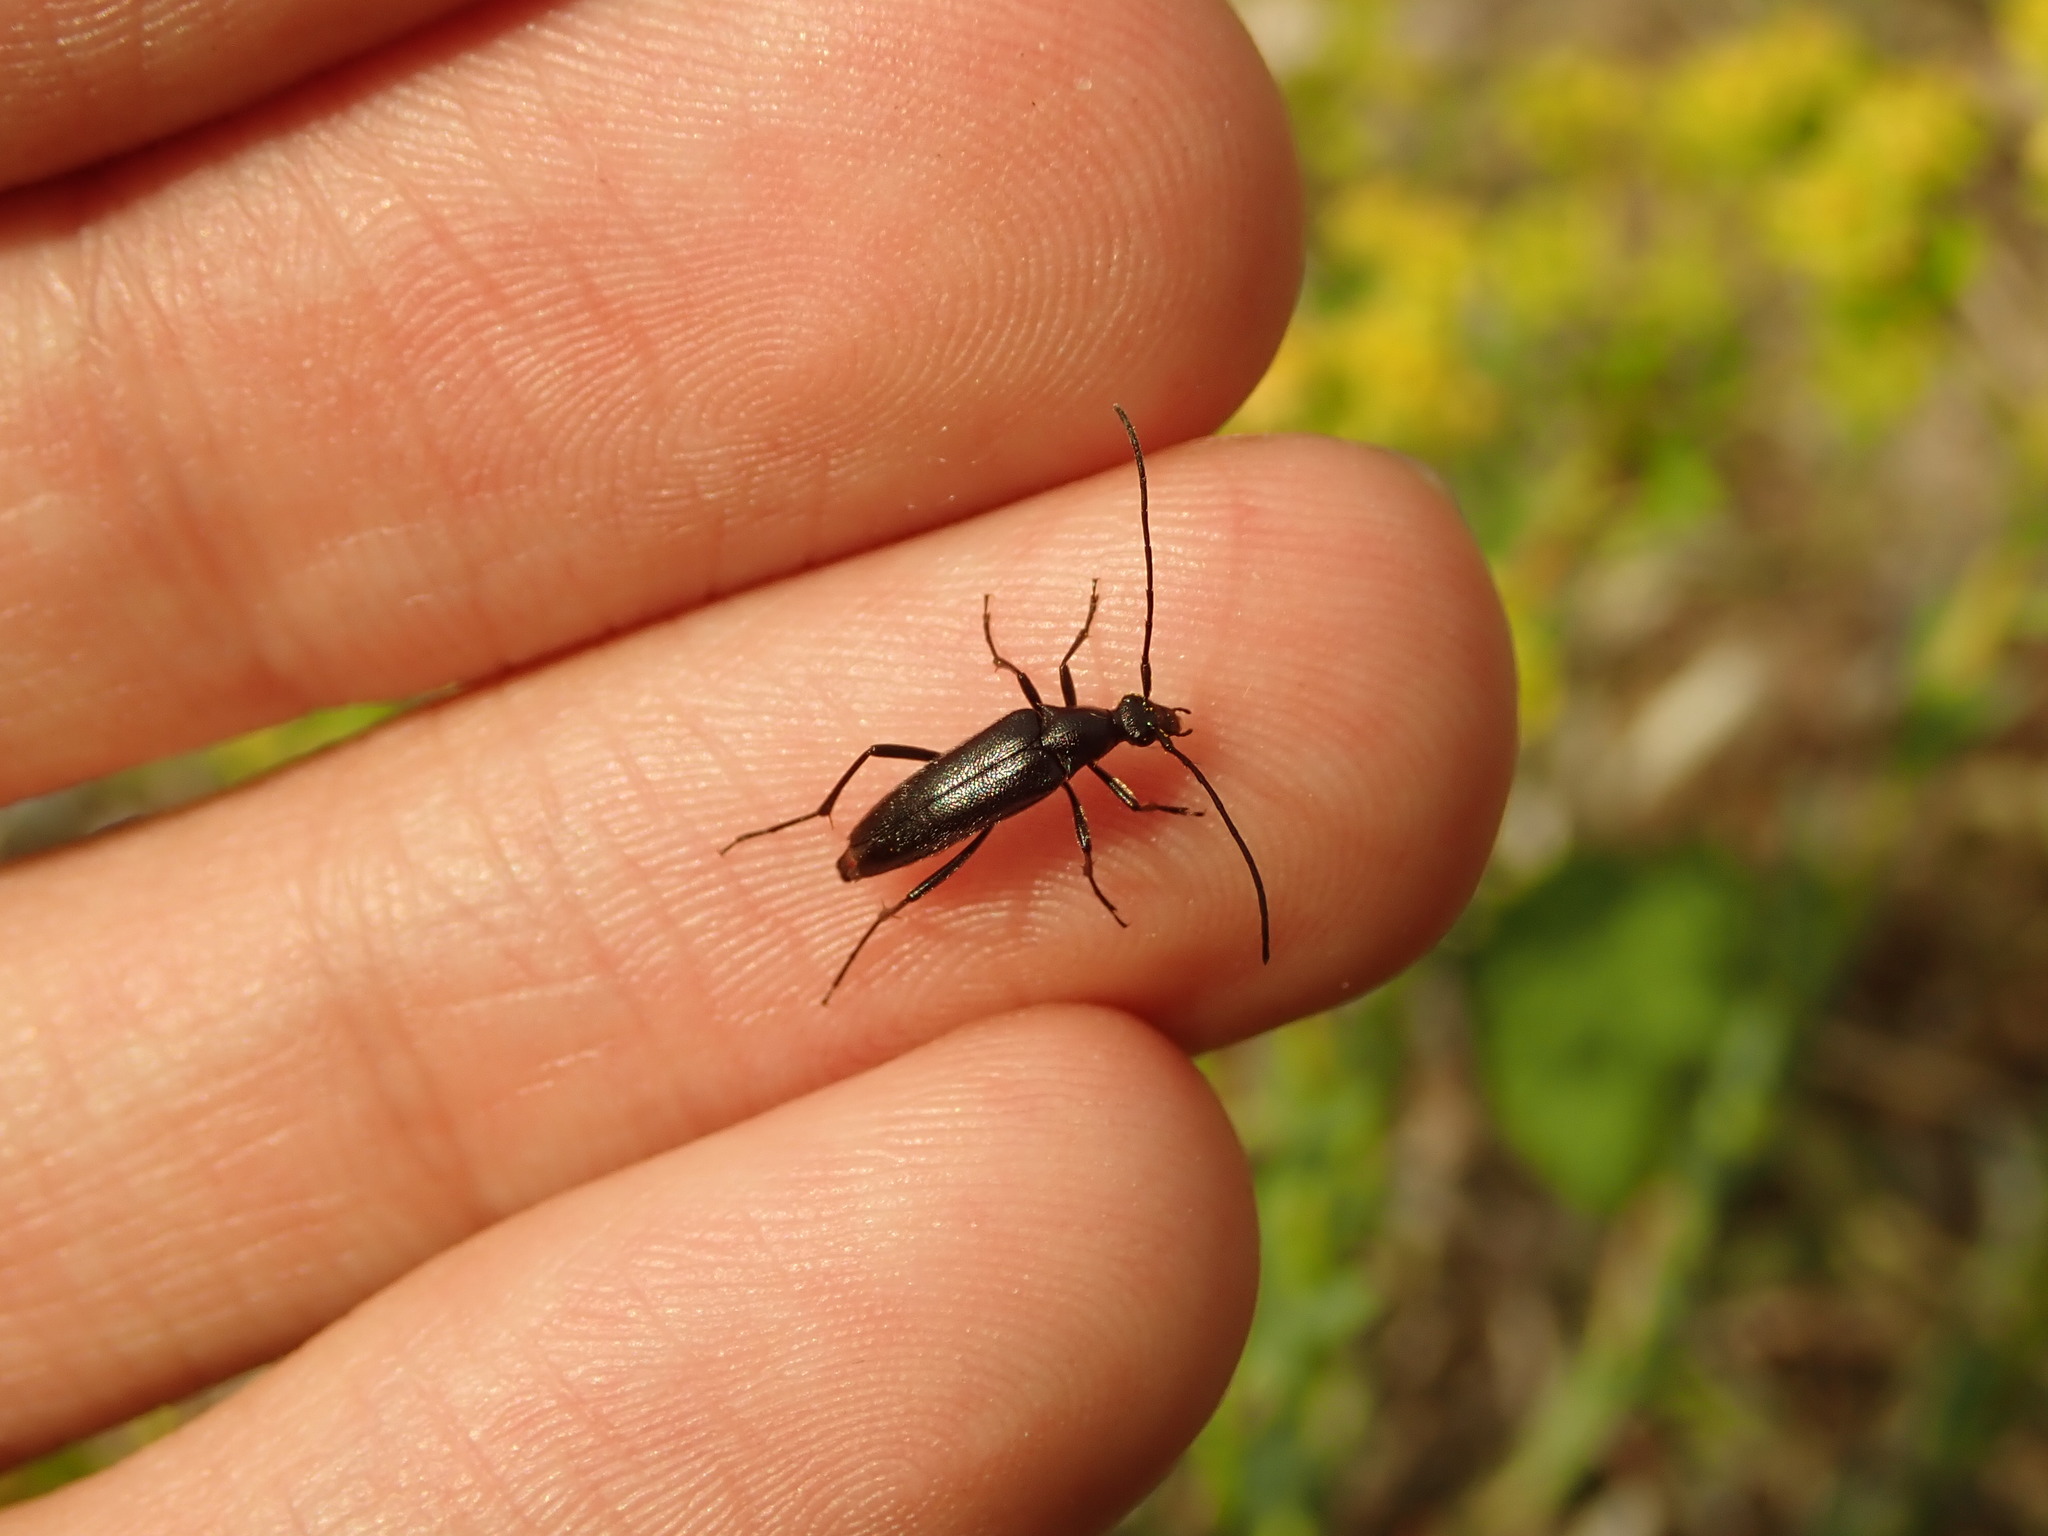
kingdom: Animalia
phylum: Arthropoda
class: Insecta
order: Coleoptera
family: Cerambycidae
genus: Stenurella
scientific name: Stenurella nigra
